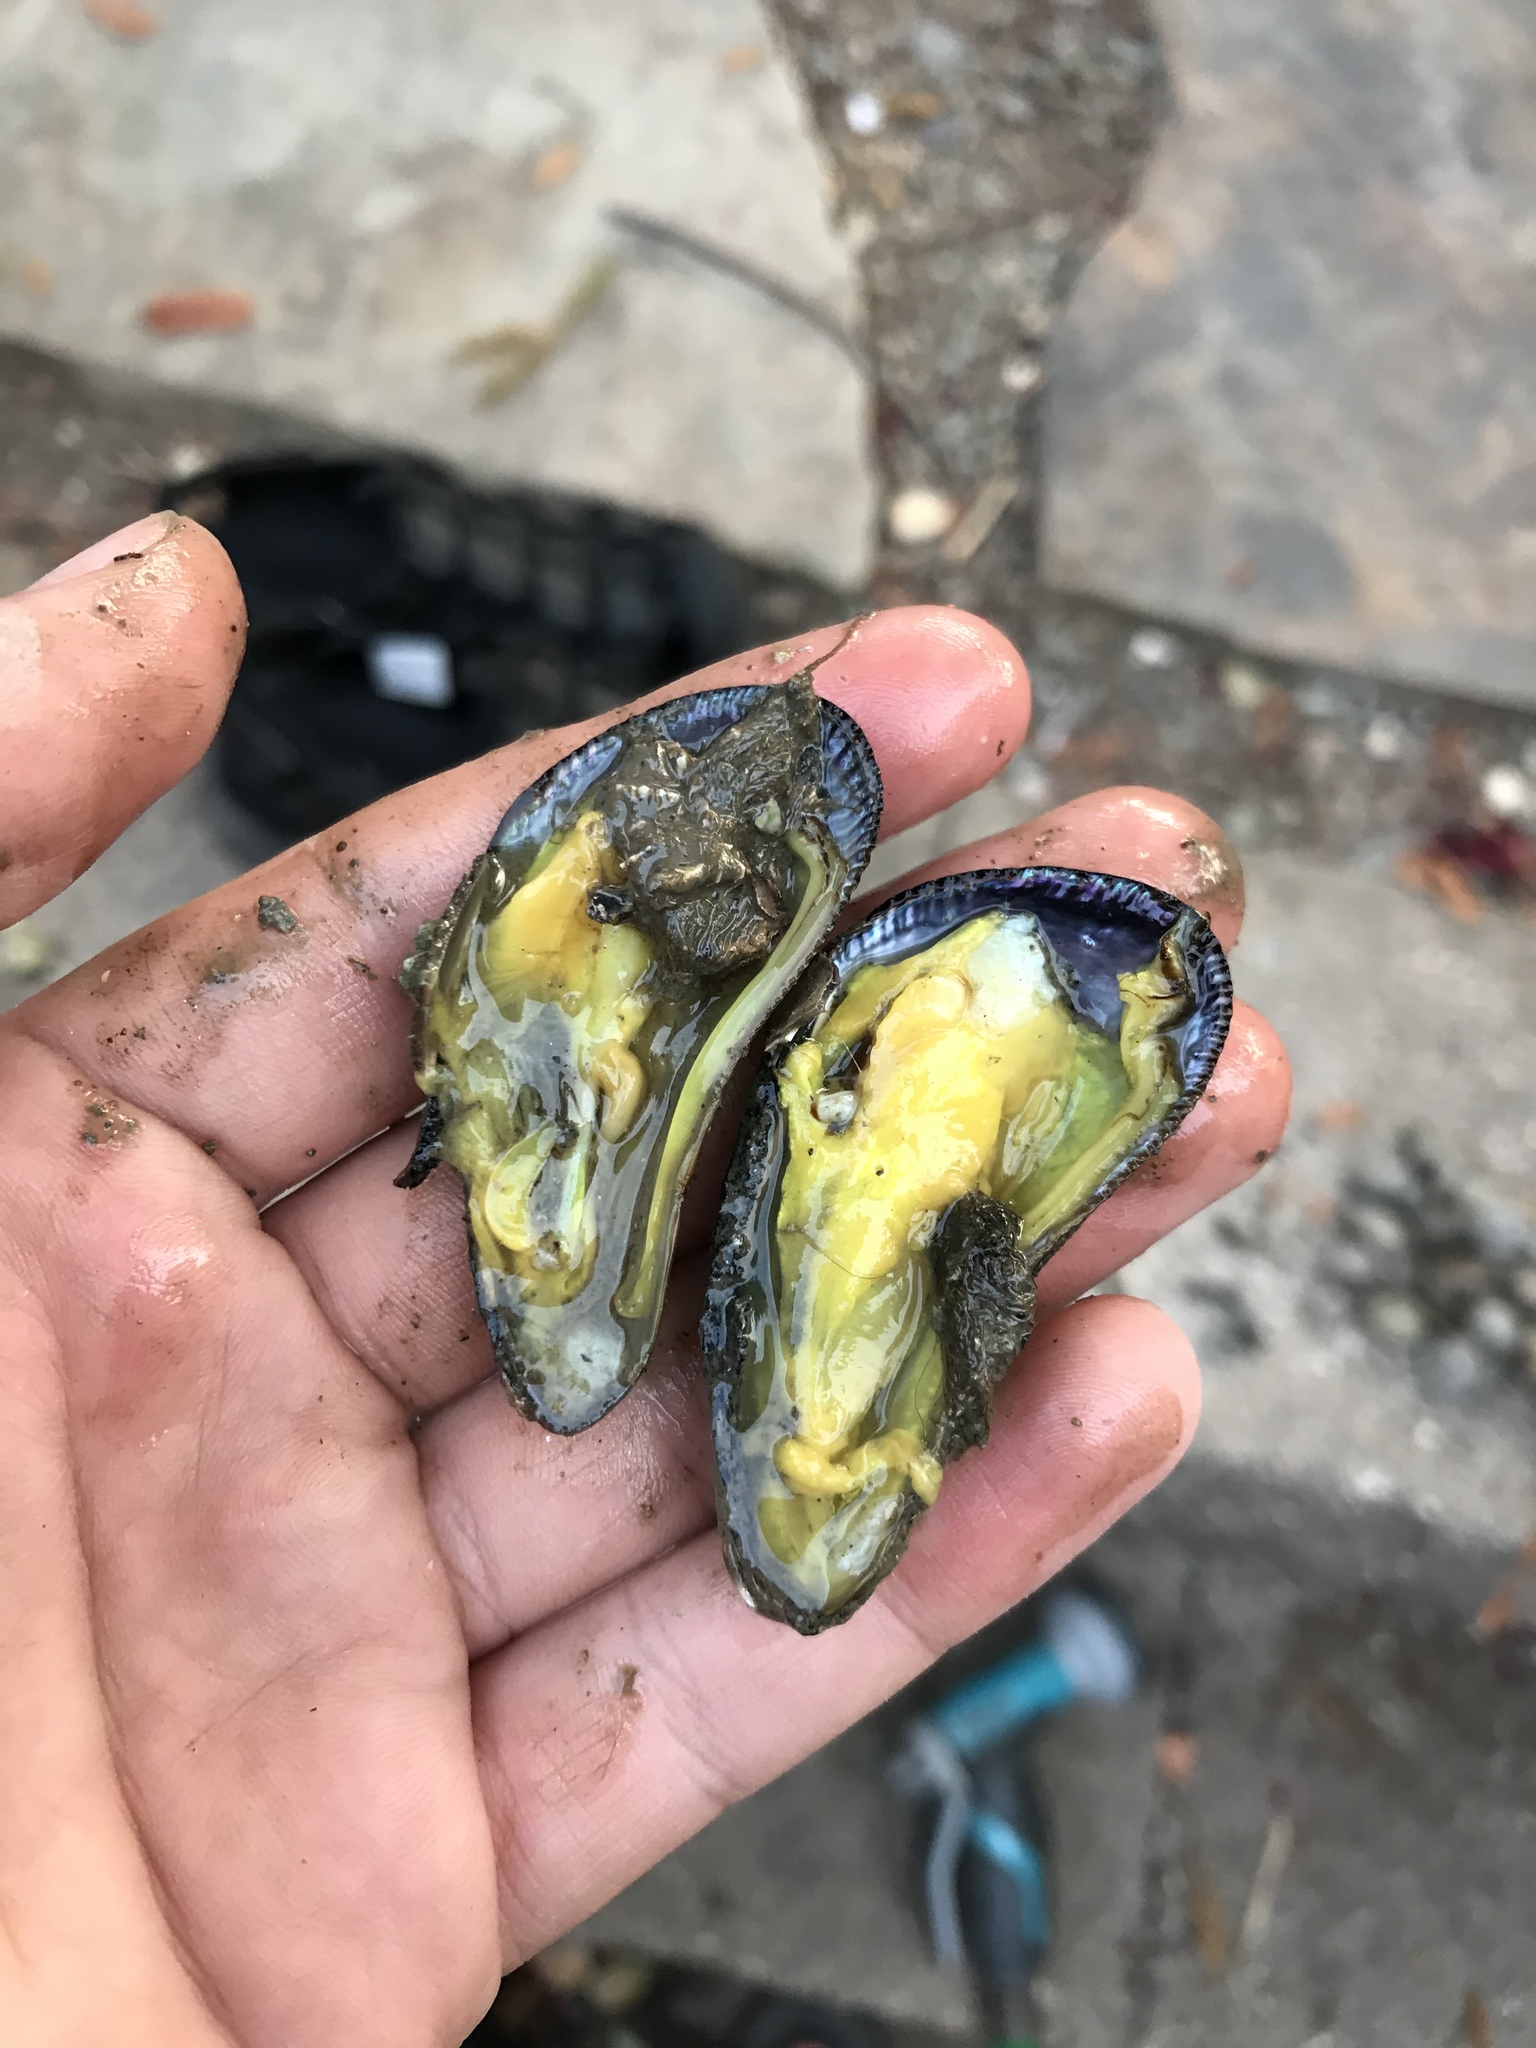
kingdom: Animalia
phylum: Mollusca
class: Bivalvia
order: Mytilida
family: Mytilidae
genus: Geukensia
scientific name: Geukensia demissa
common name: Ribbed mussel
